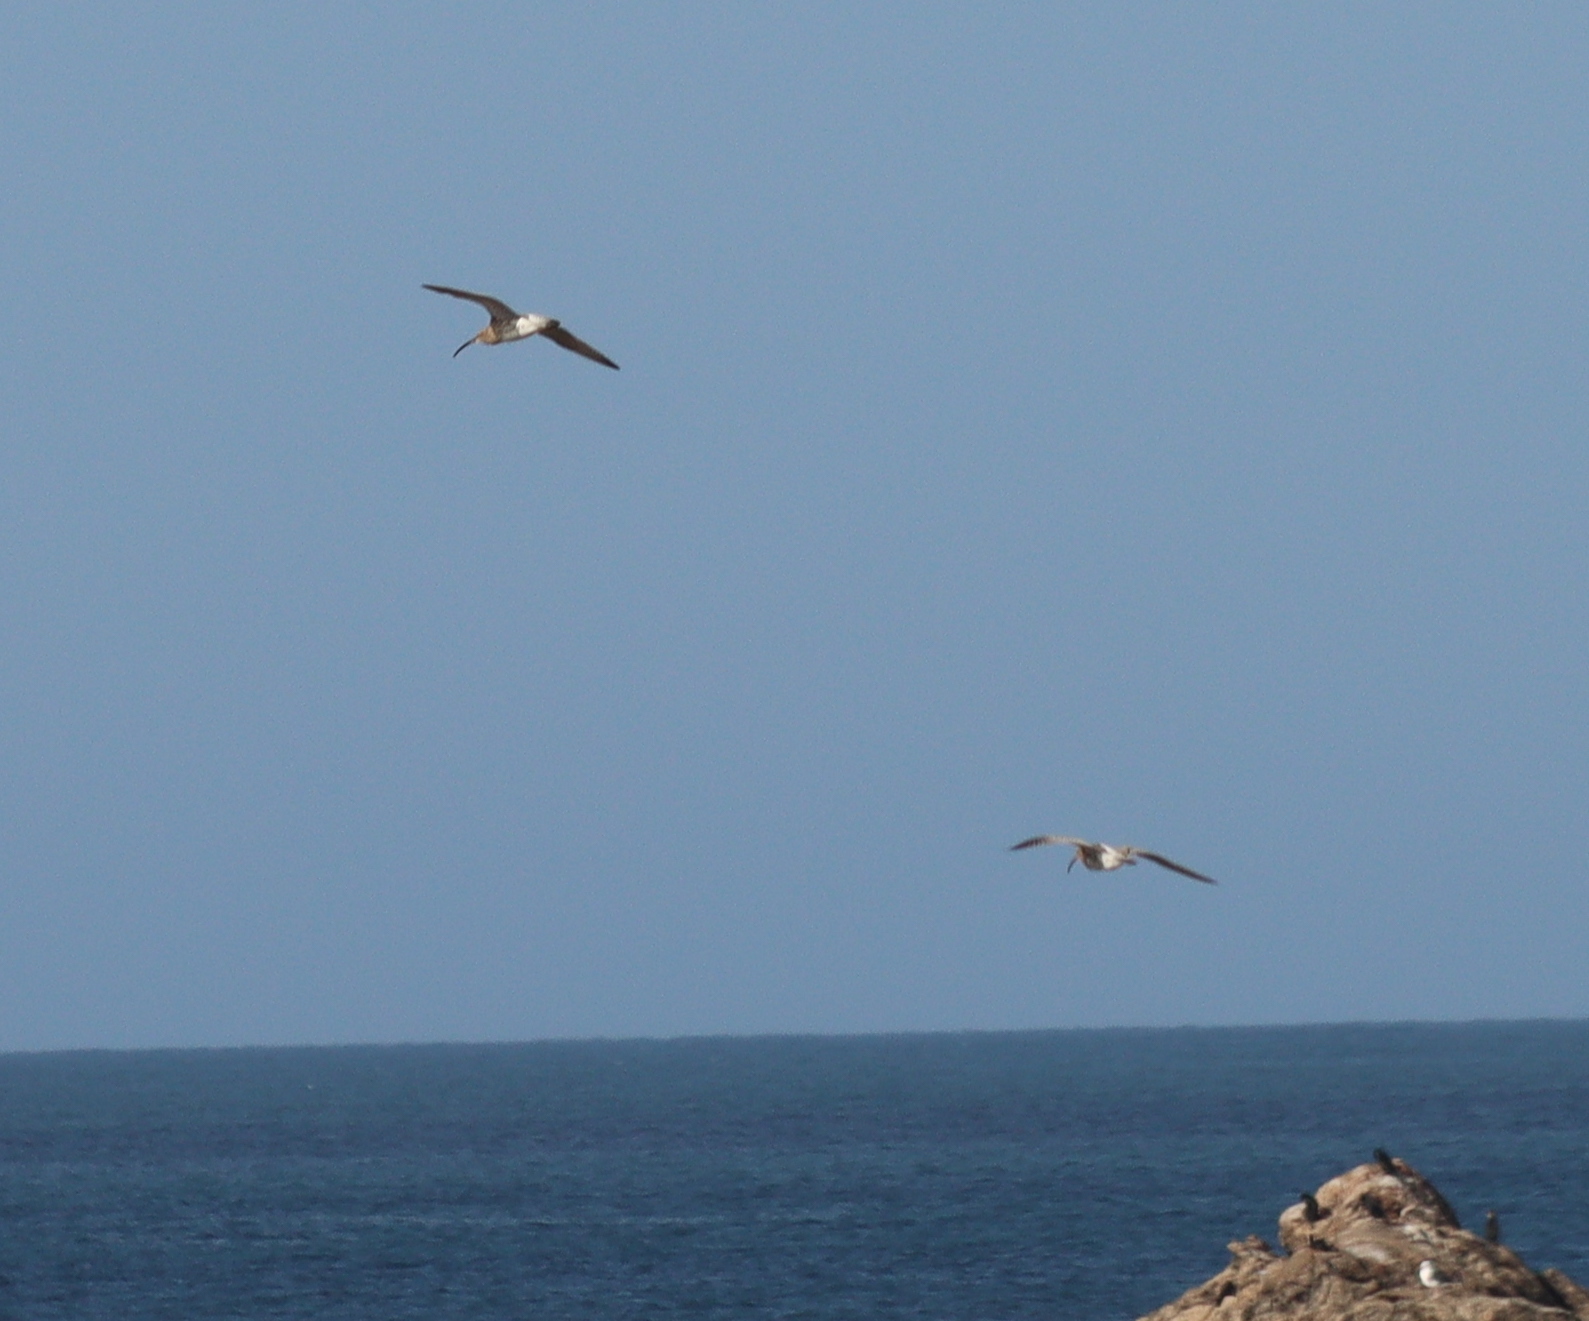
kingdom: Animalia
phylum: Chordata
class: Aves
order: Charadriiformes
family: Scolopacidae
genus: Numenius
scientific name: Numenius arquata
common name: Eurasian curlew
